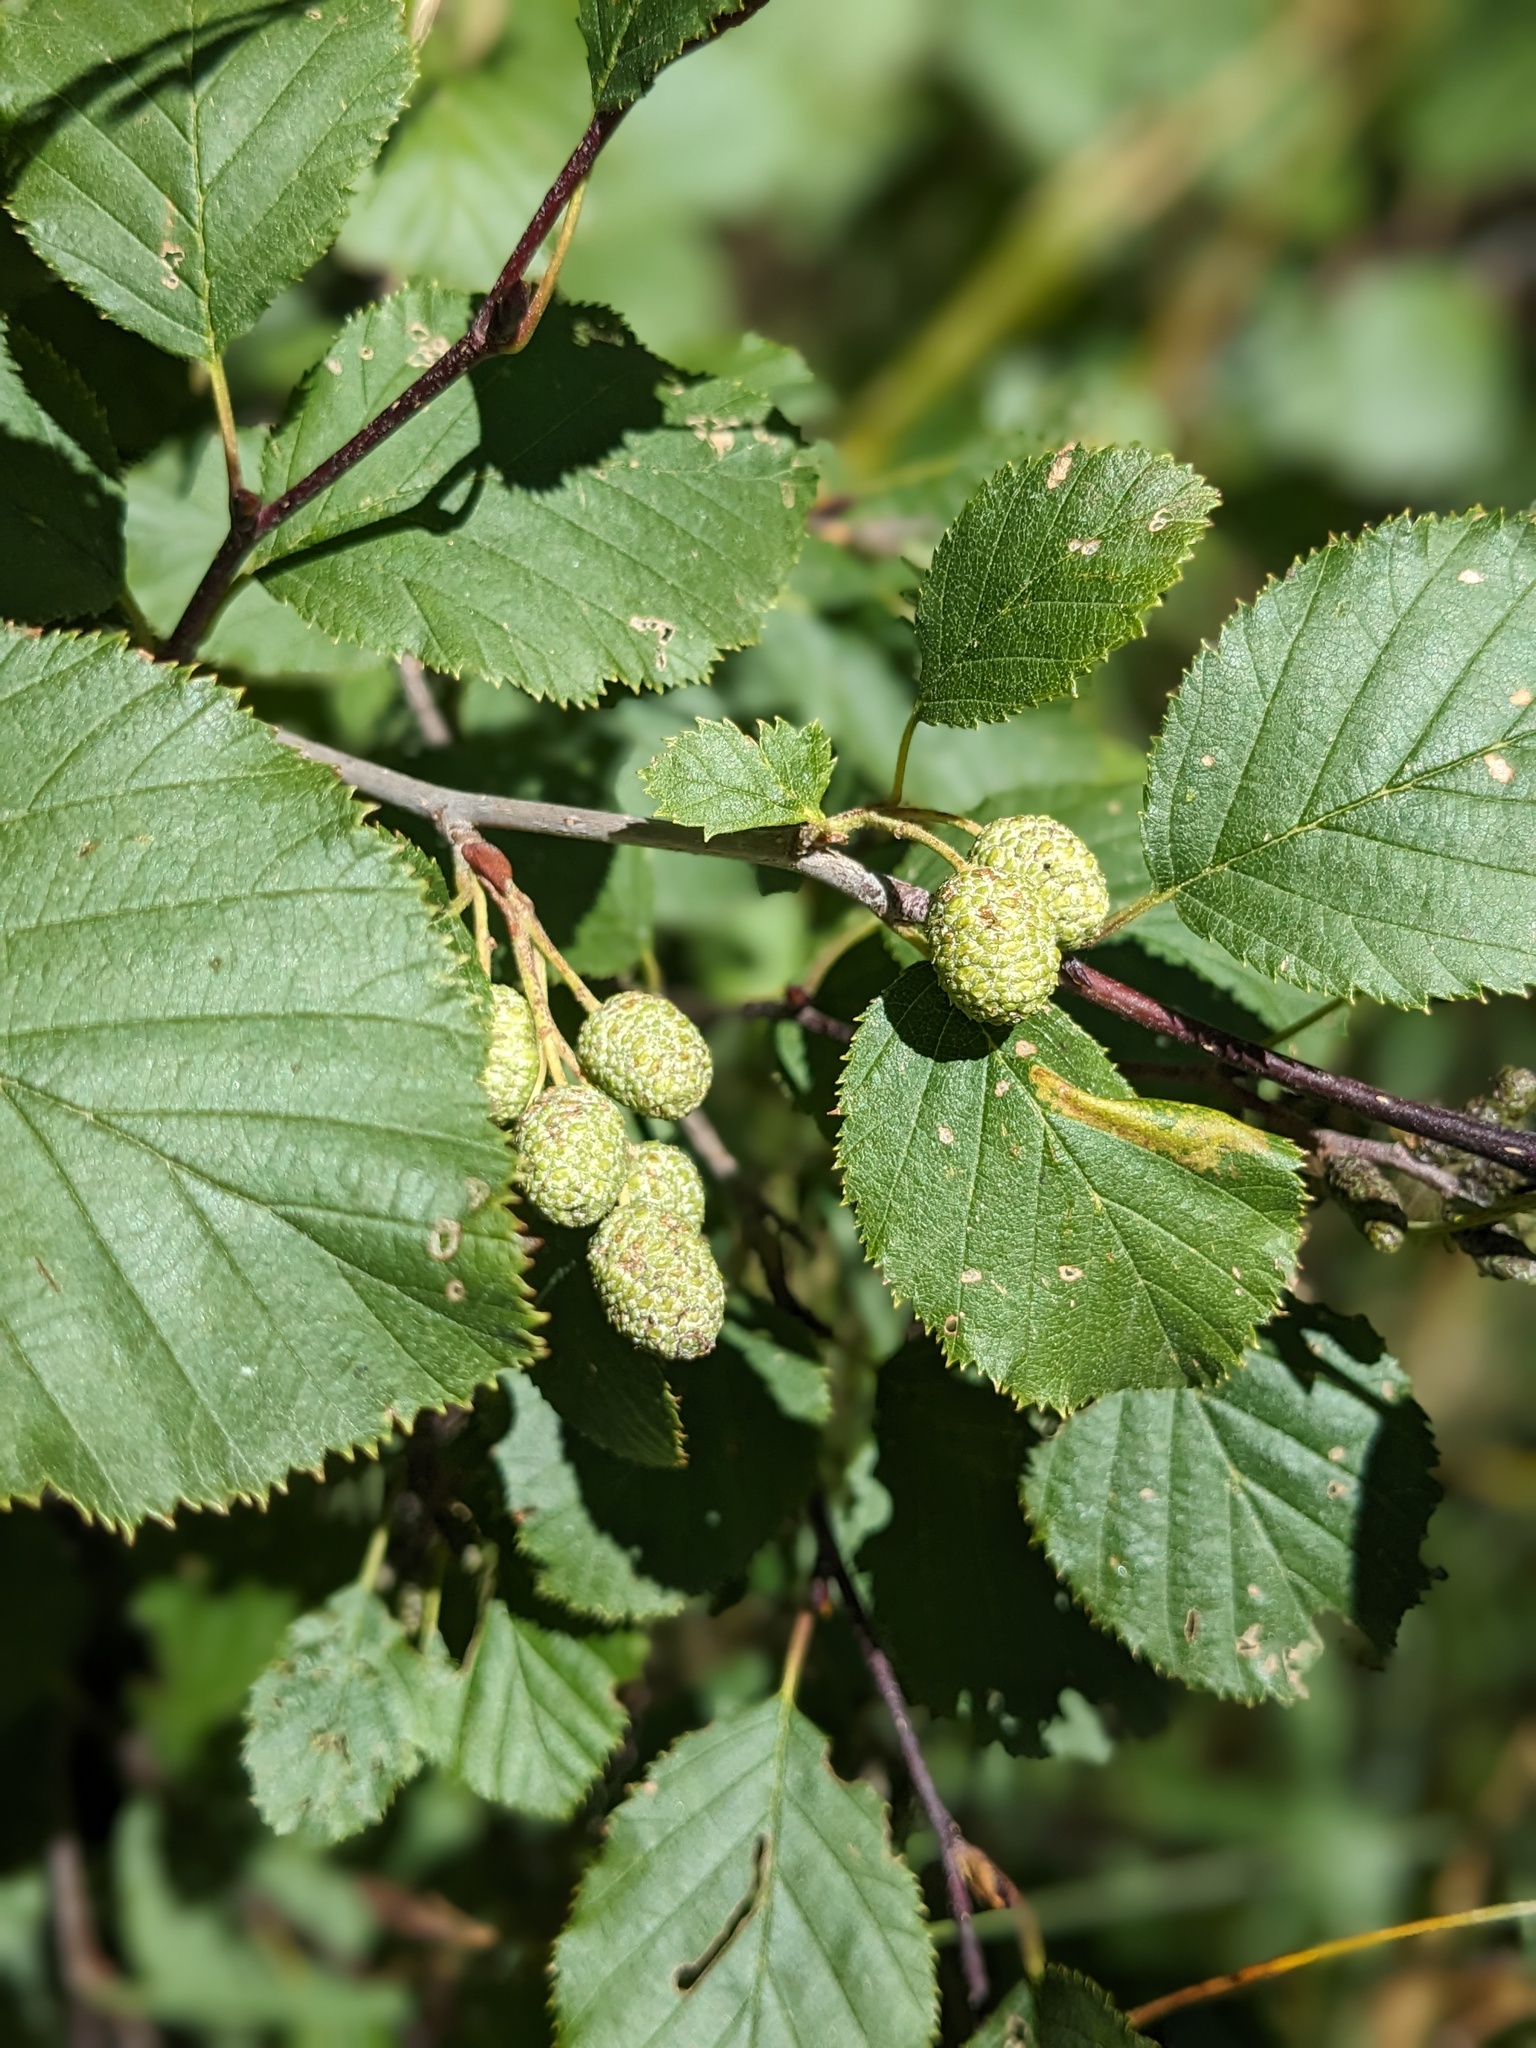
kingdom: Plantae
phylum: Tracheophyta
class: Magnoliopsida
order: Fagales
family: Betulaceae
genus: Alnus
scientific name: Alnus alnobetula
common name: Green alder
